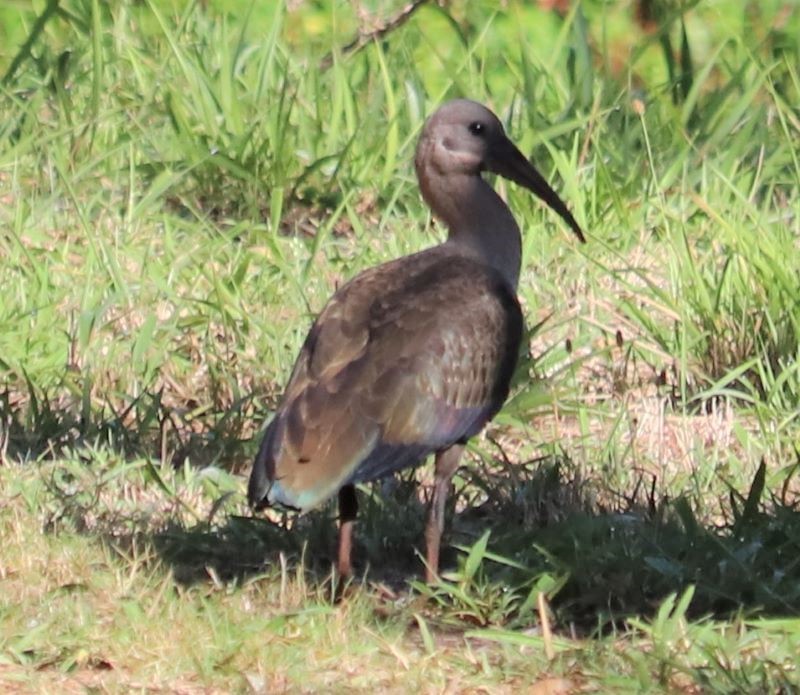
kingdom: Animalia
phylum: Chordata
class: Aves
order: Pelecaniformes
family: Threskiornithidae
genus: Bostrychia
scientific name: Bostrychia hagedash
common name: Hadada ibis
